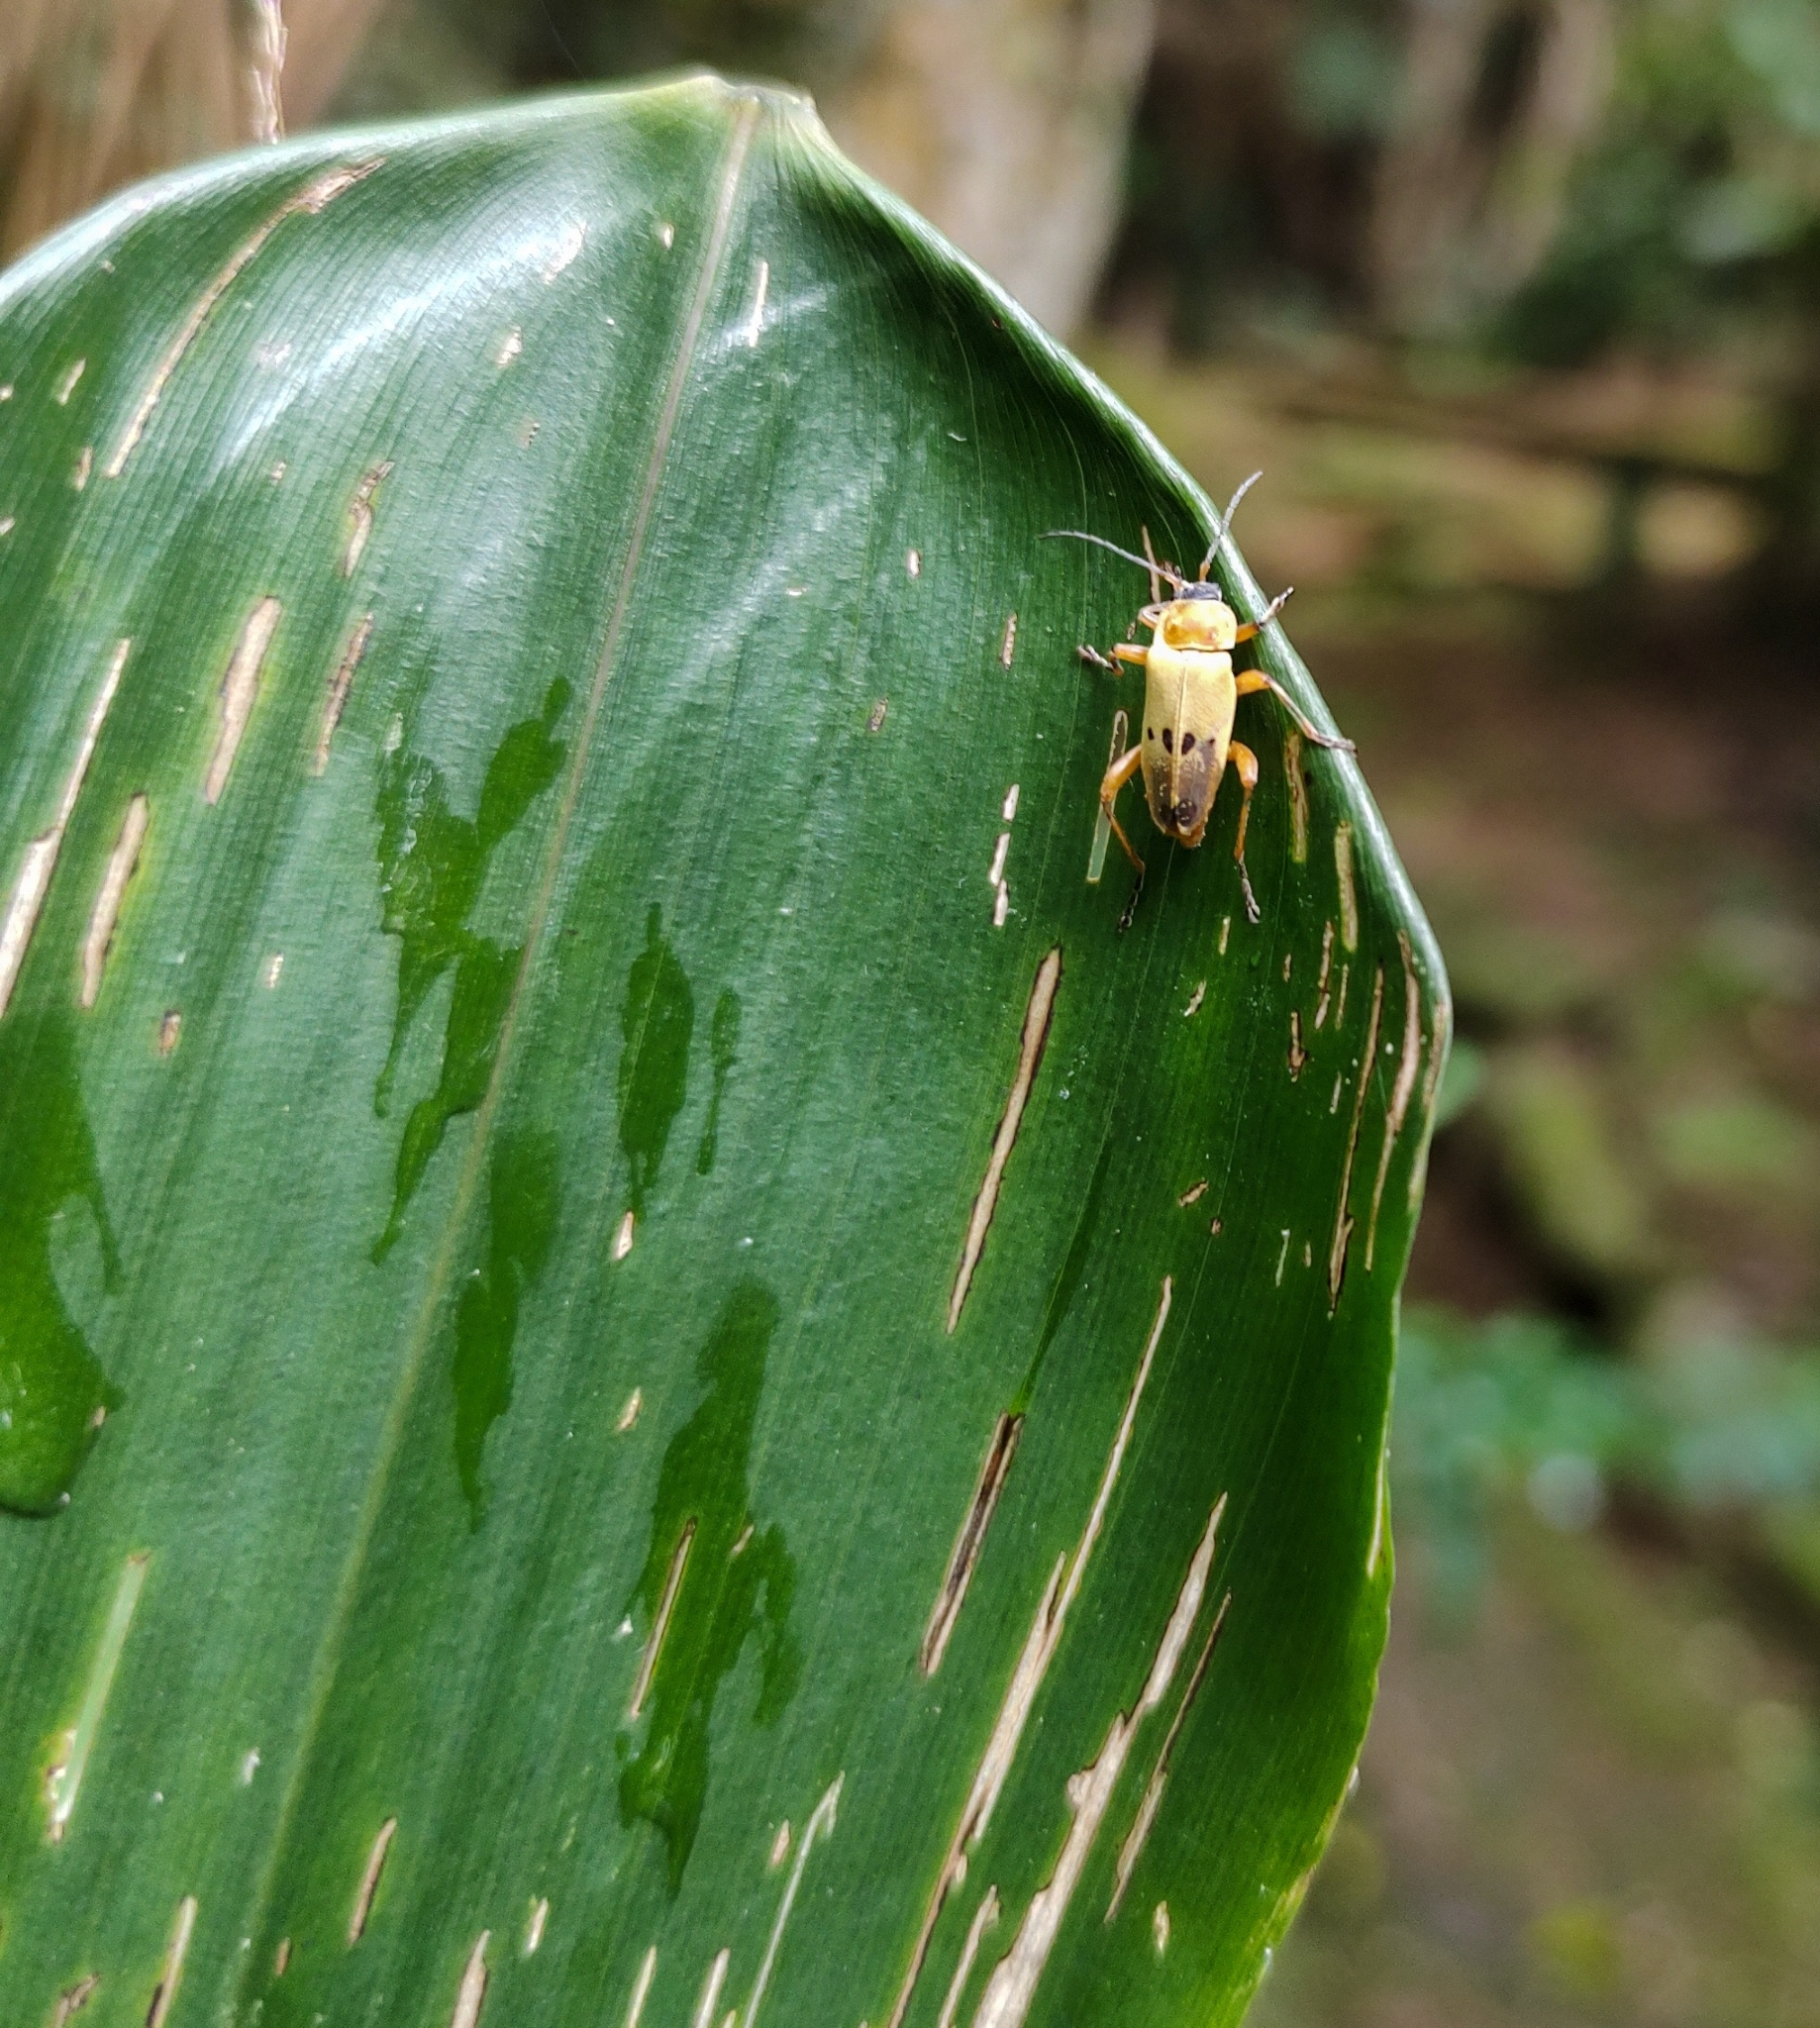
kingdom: Animalia
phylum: Arthropoda
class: Insecta
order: Coleoptera
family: Cantharidae
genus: Chauliognathus
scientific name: Chauliognathus
